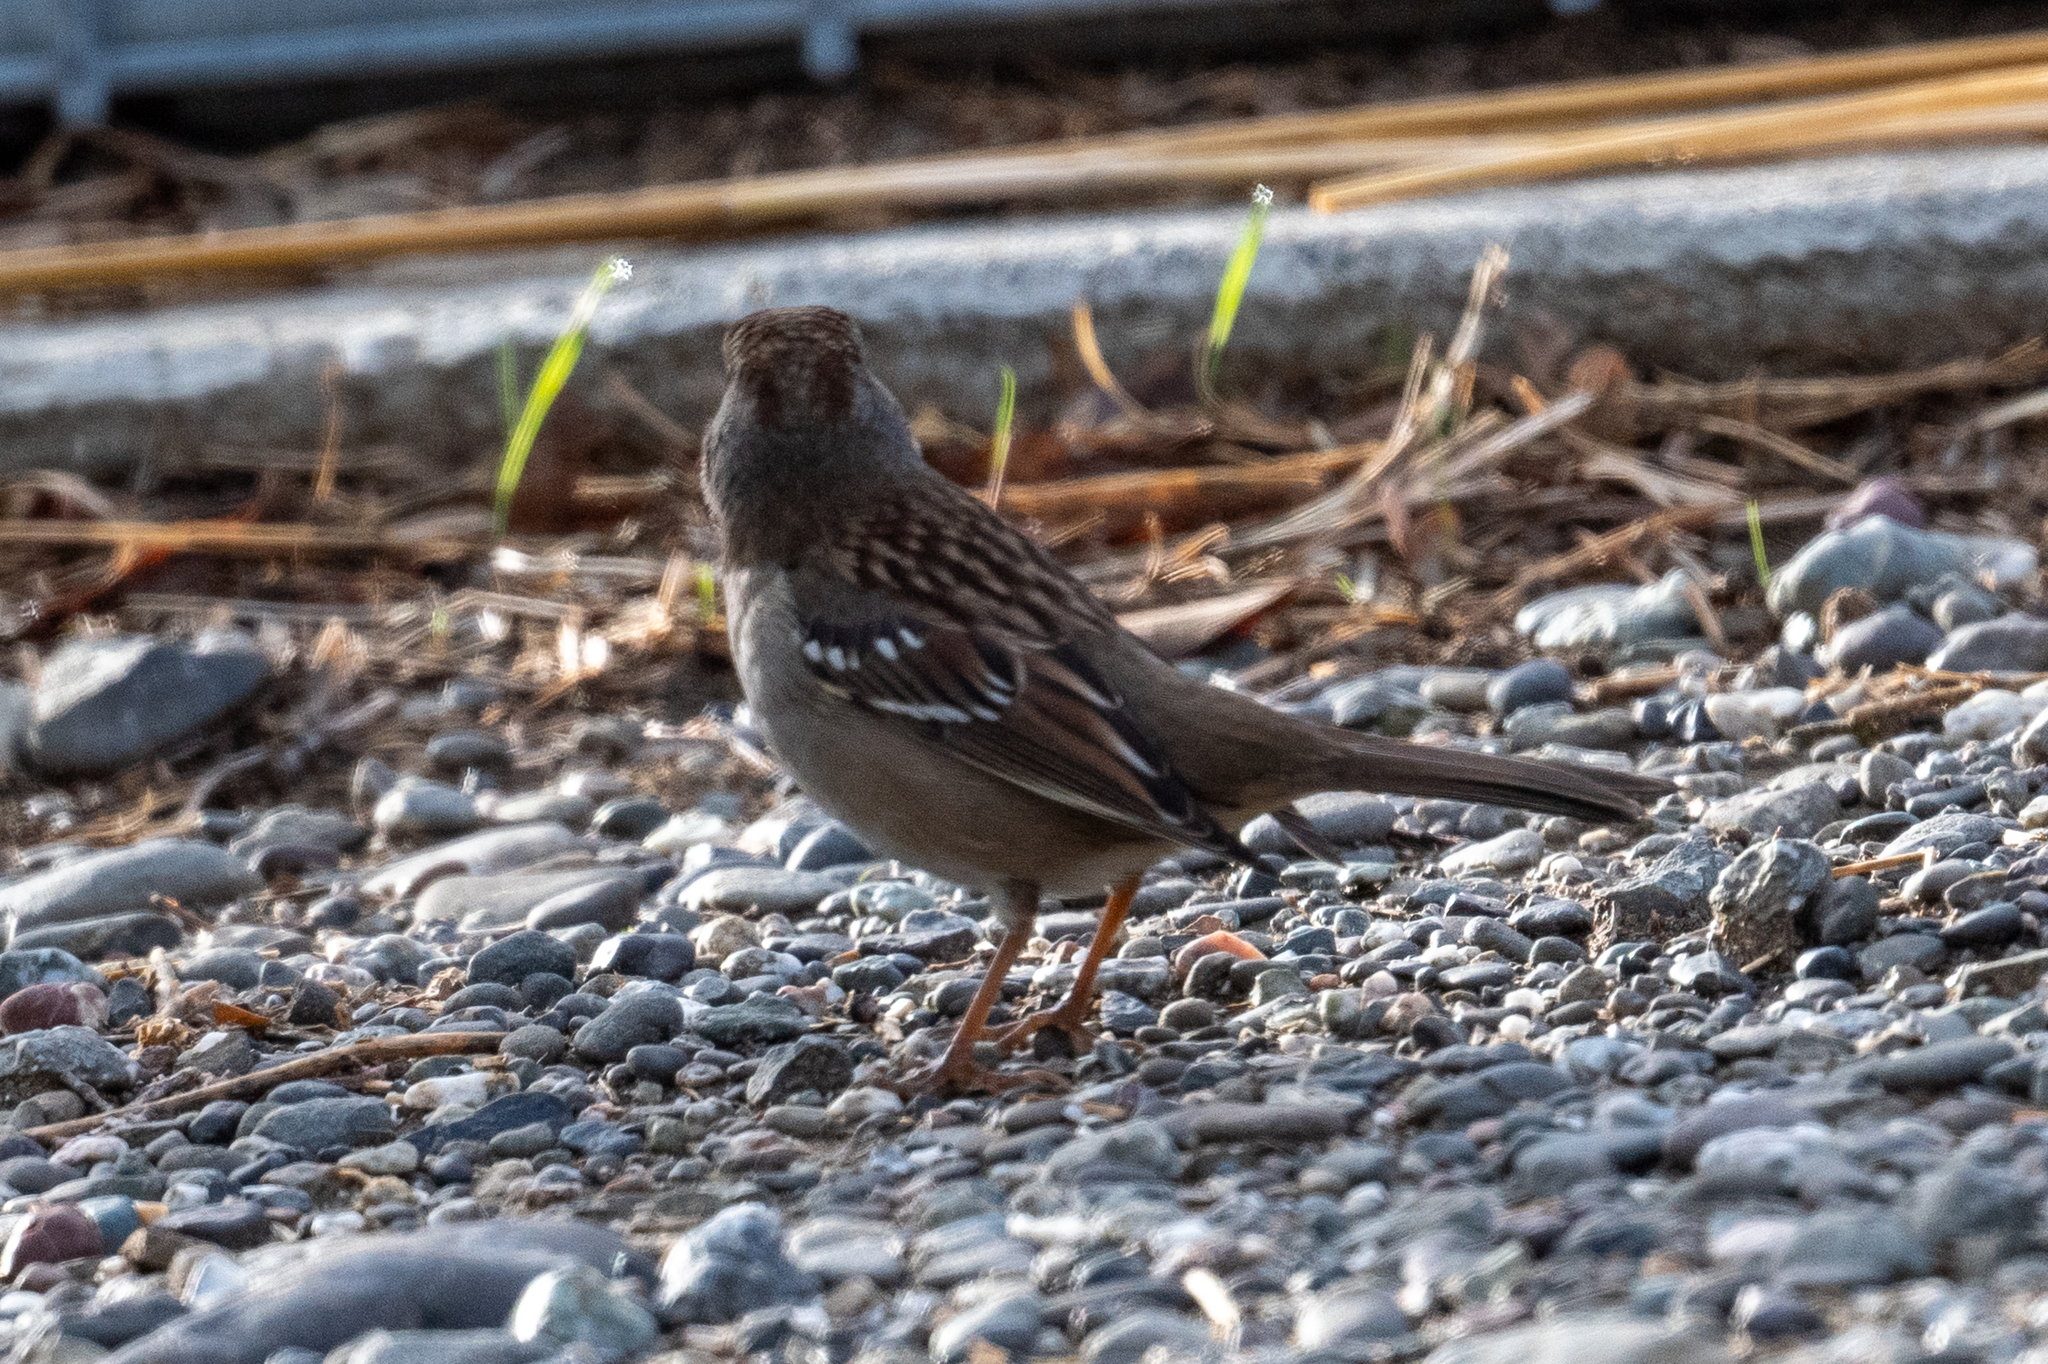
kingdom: Animalia
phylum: Chordata
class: Aves
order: Passeriformes
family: Passerellidae
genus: Zonotrichia
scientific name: Zonotrichia leucophrys
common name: White-crowned sparrow
